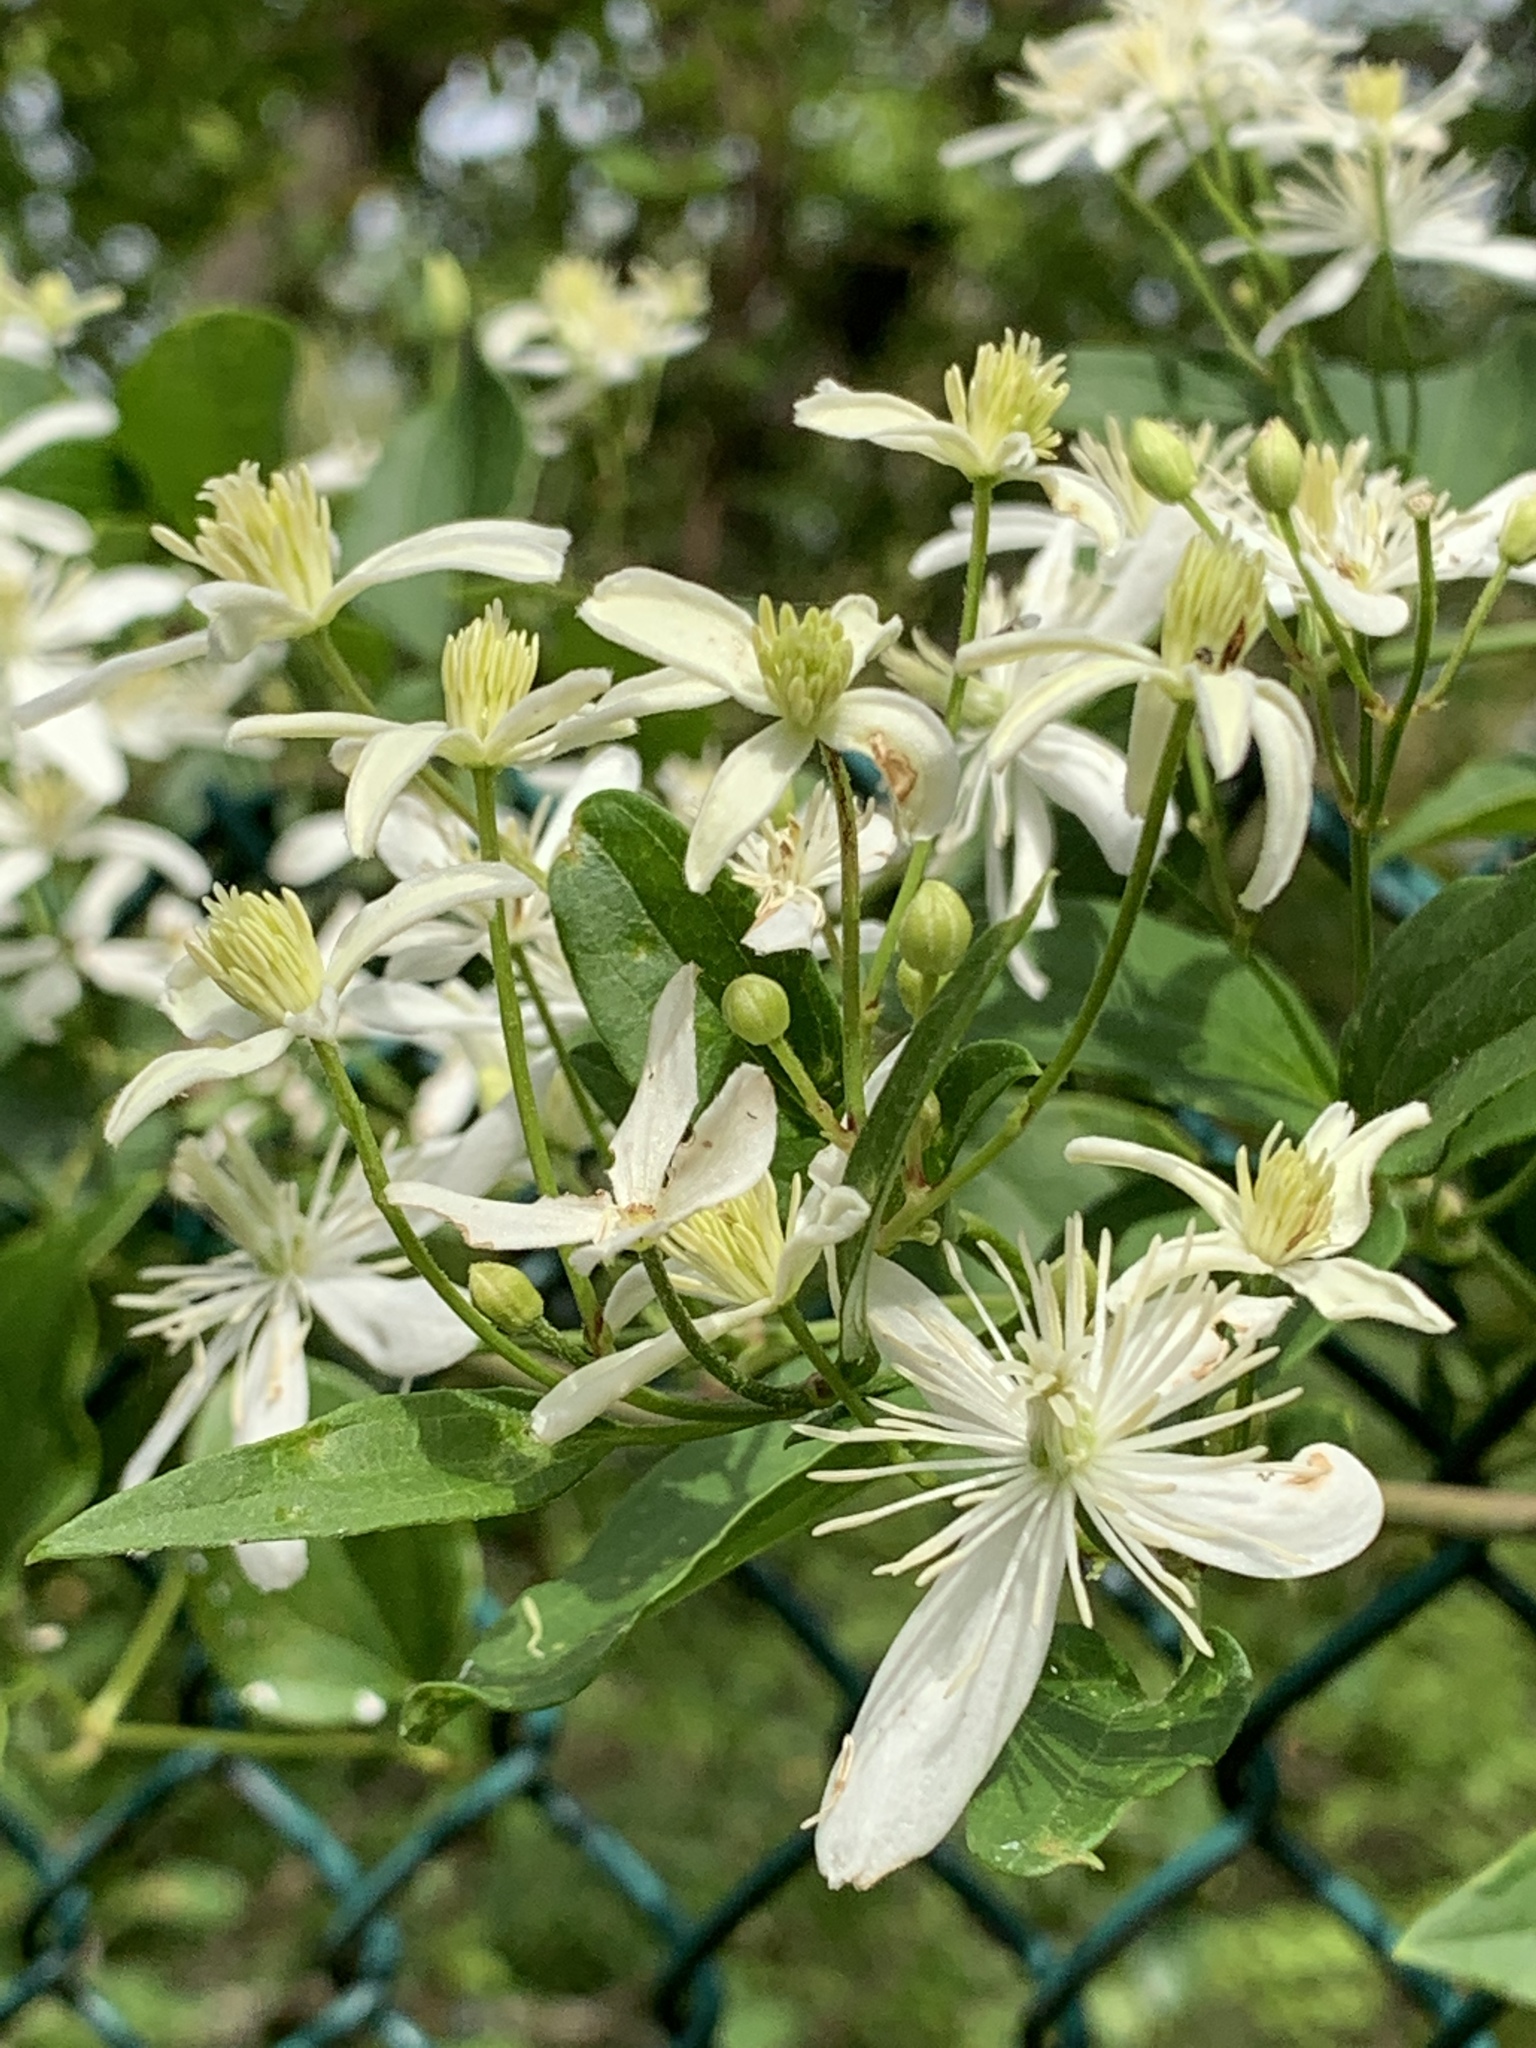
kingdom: Plantae
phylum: Tracheophyta
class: Magnoliopsida
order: Ranunculales
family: Ranunculaceae
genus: Clematis
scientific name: Clematis terniflora
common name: Sweet autumn clematis
